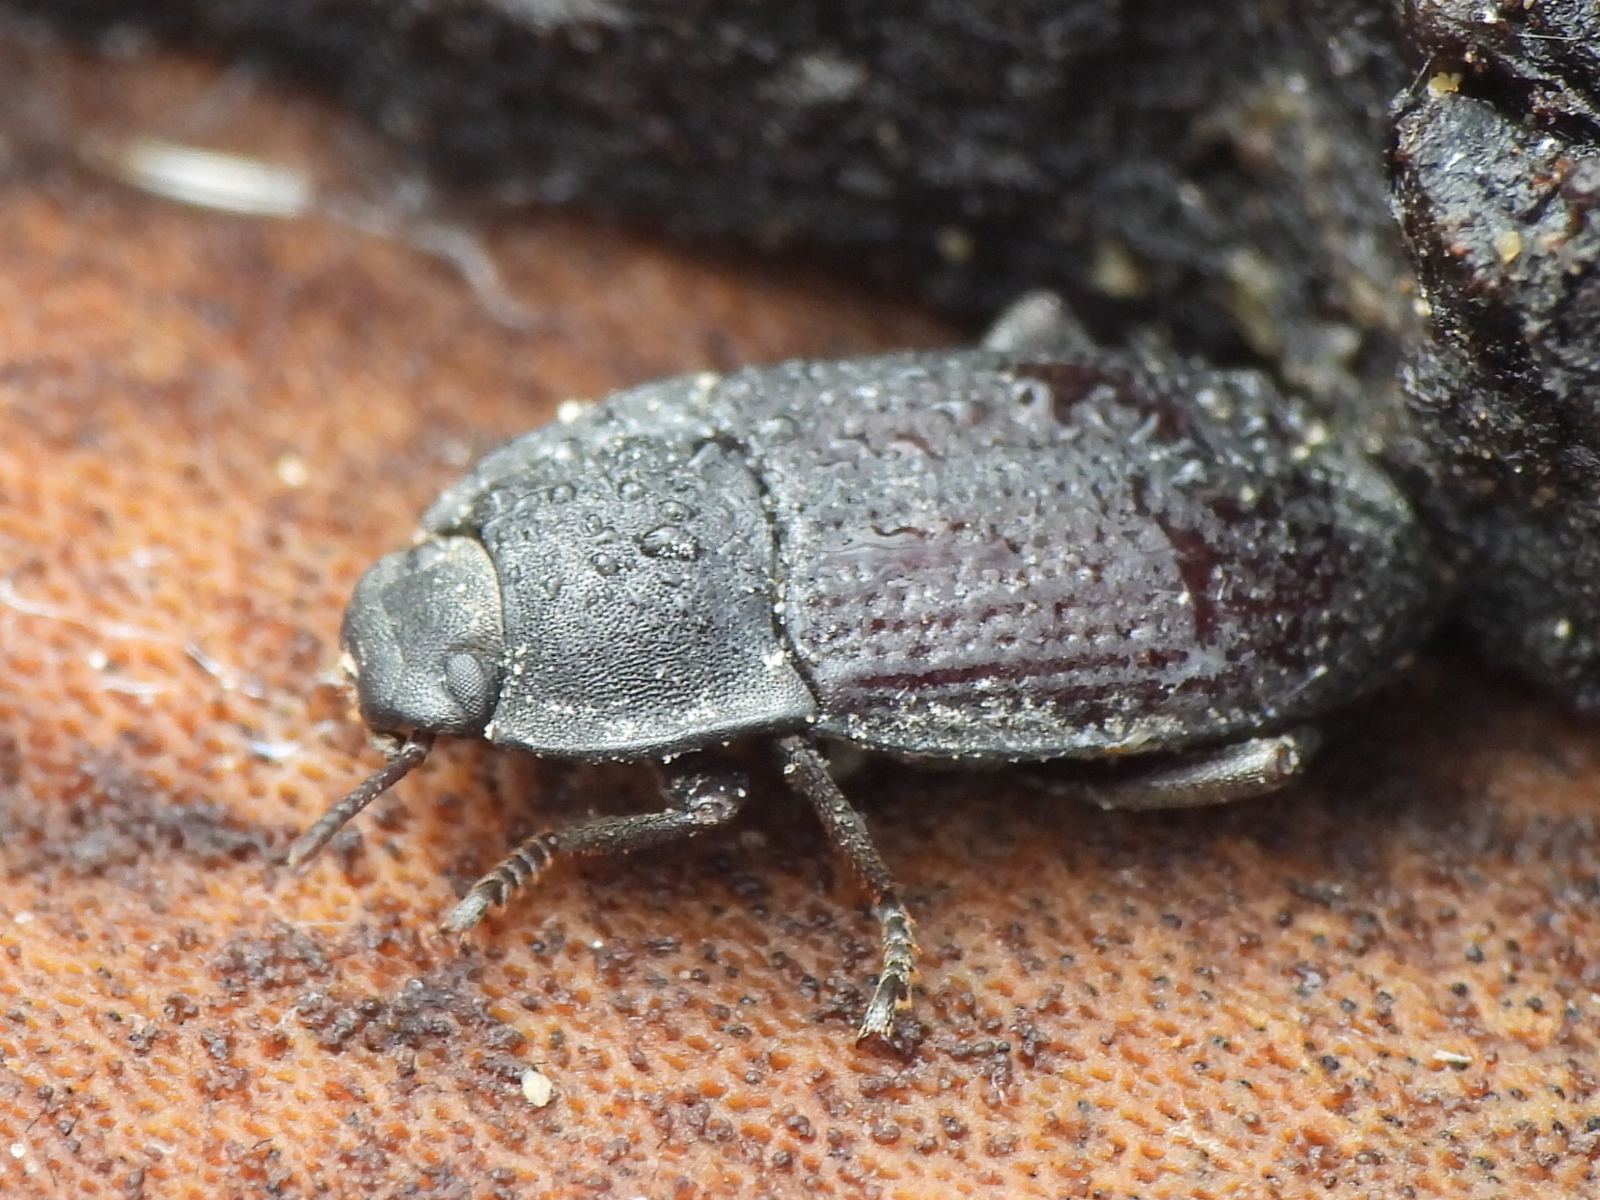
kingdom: Animalia
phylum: Arthropoda
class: Insecta
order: Coleoptera
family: Tenebrionidae
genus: Asiopus
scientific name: Asiopus
